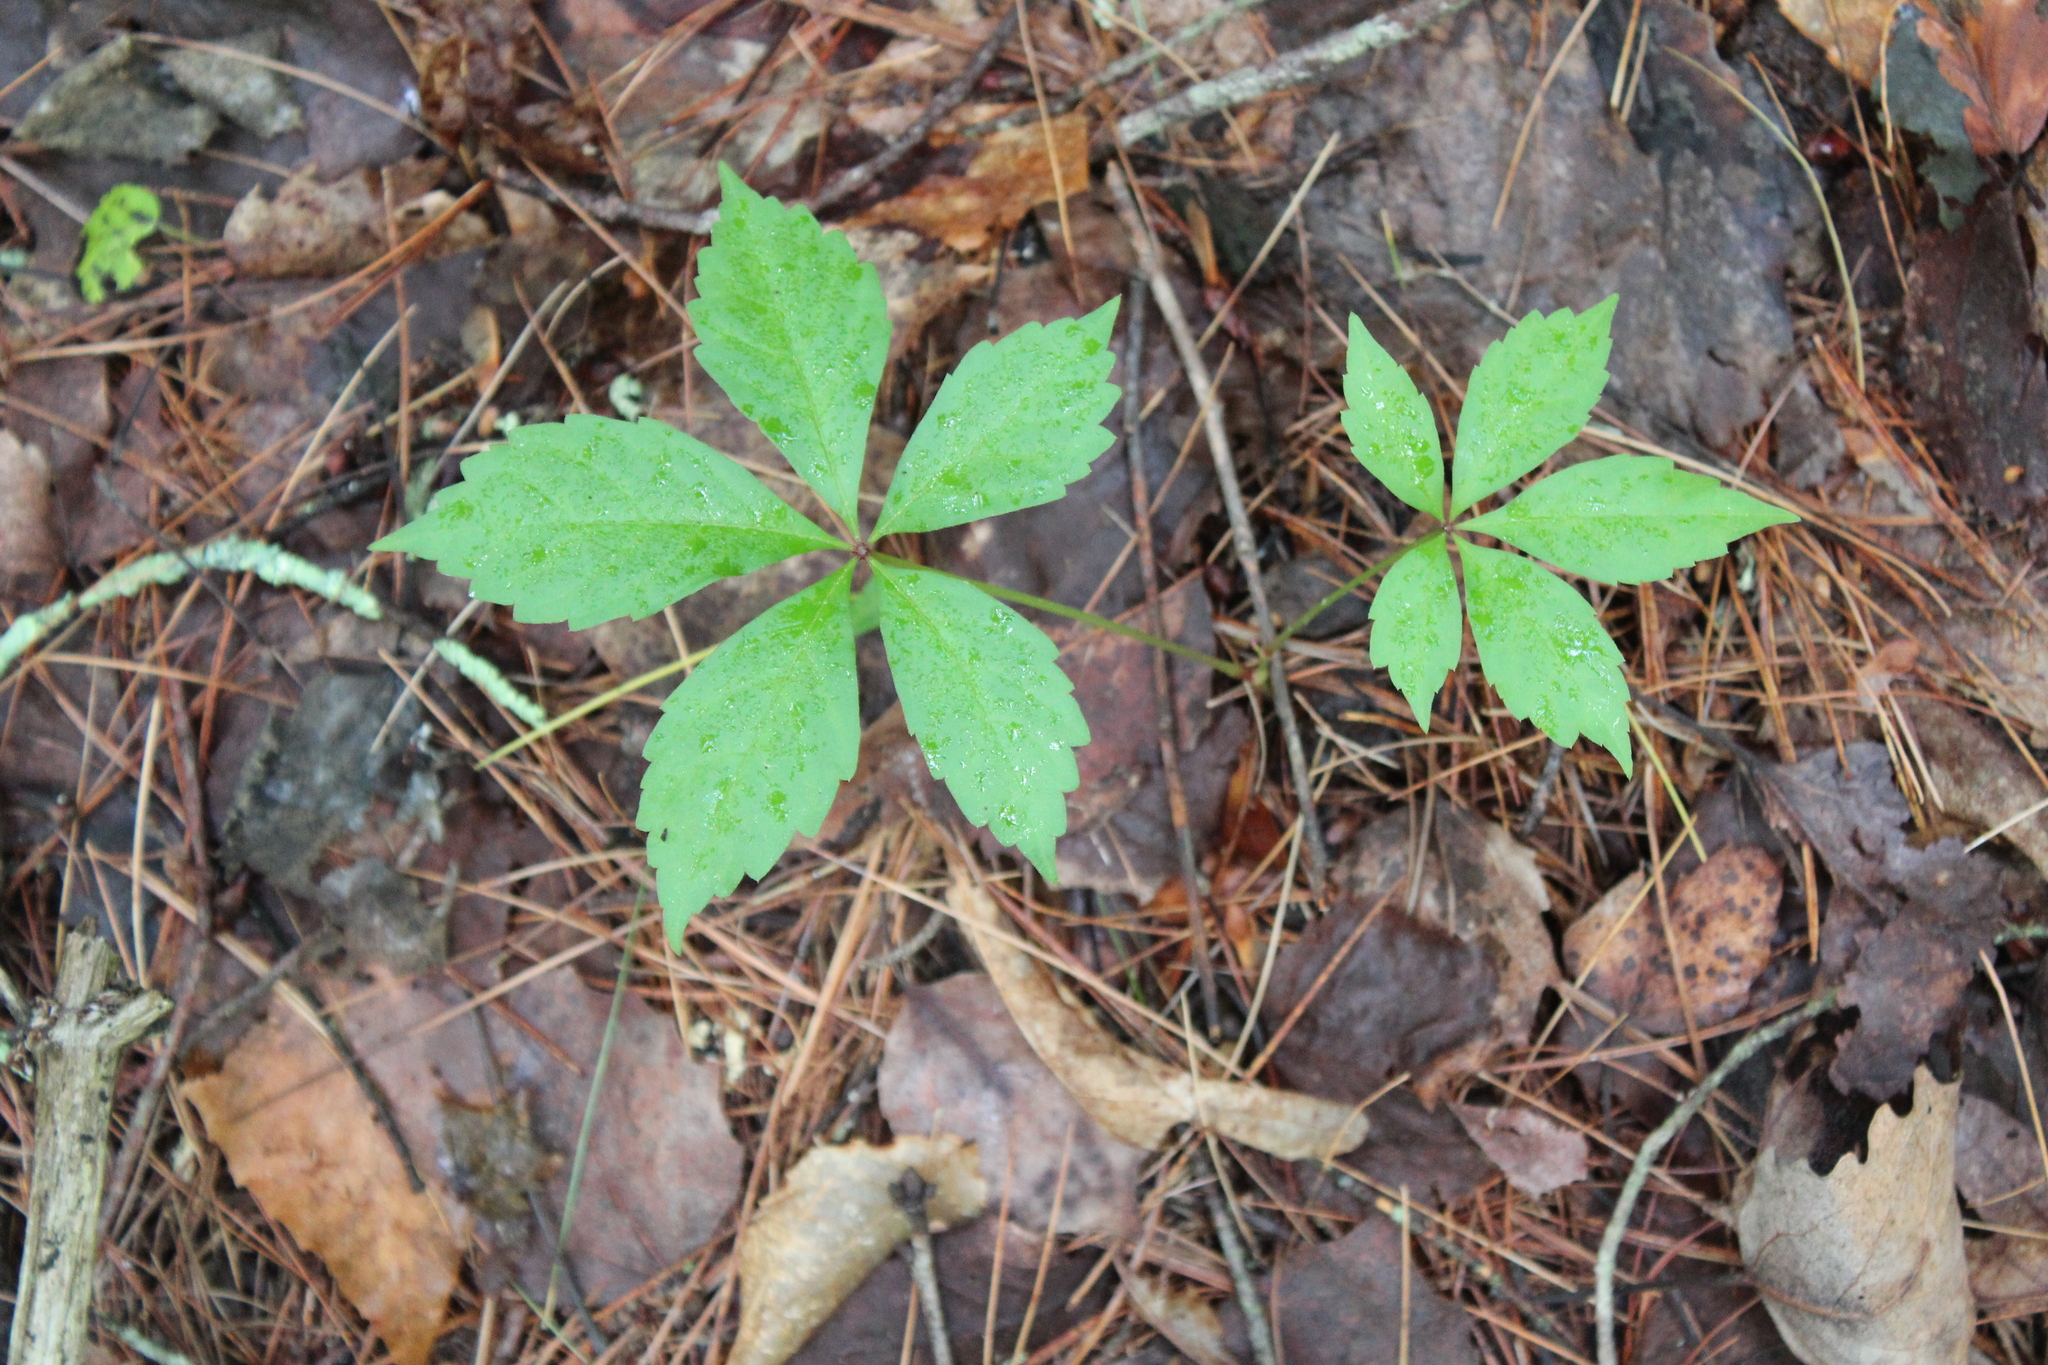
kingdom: Plantae
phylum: Tracheophyta
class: Magnoliopsida
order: Vitales
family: Vitaceae
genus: Parthenocissus
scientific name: Parthenocissus quinquefolia
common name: Virginia-creeper
